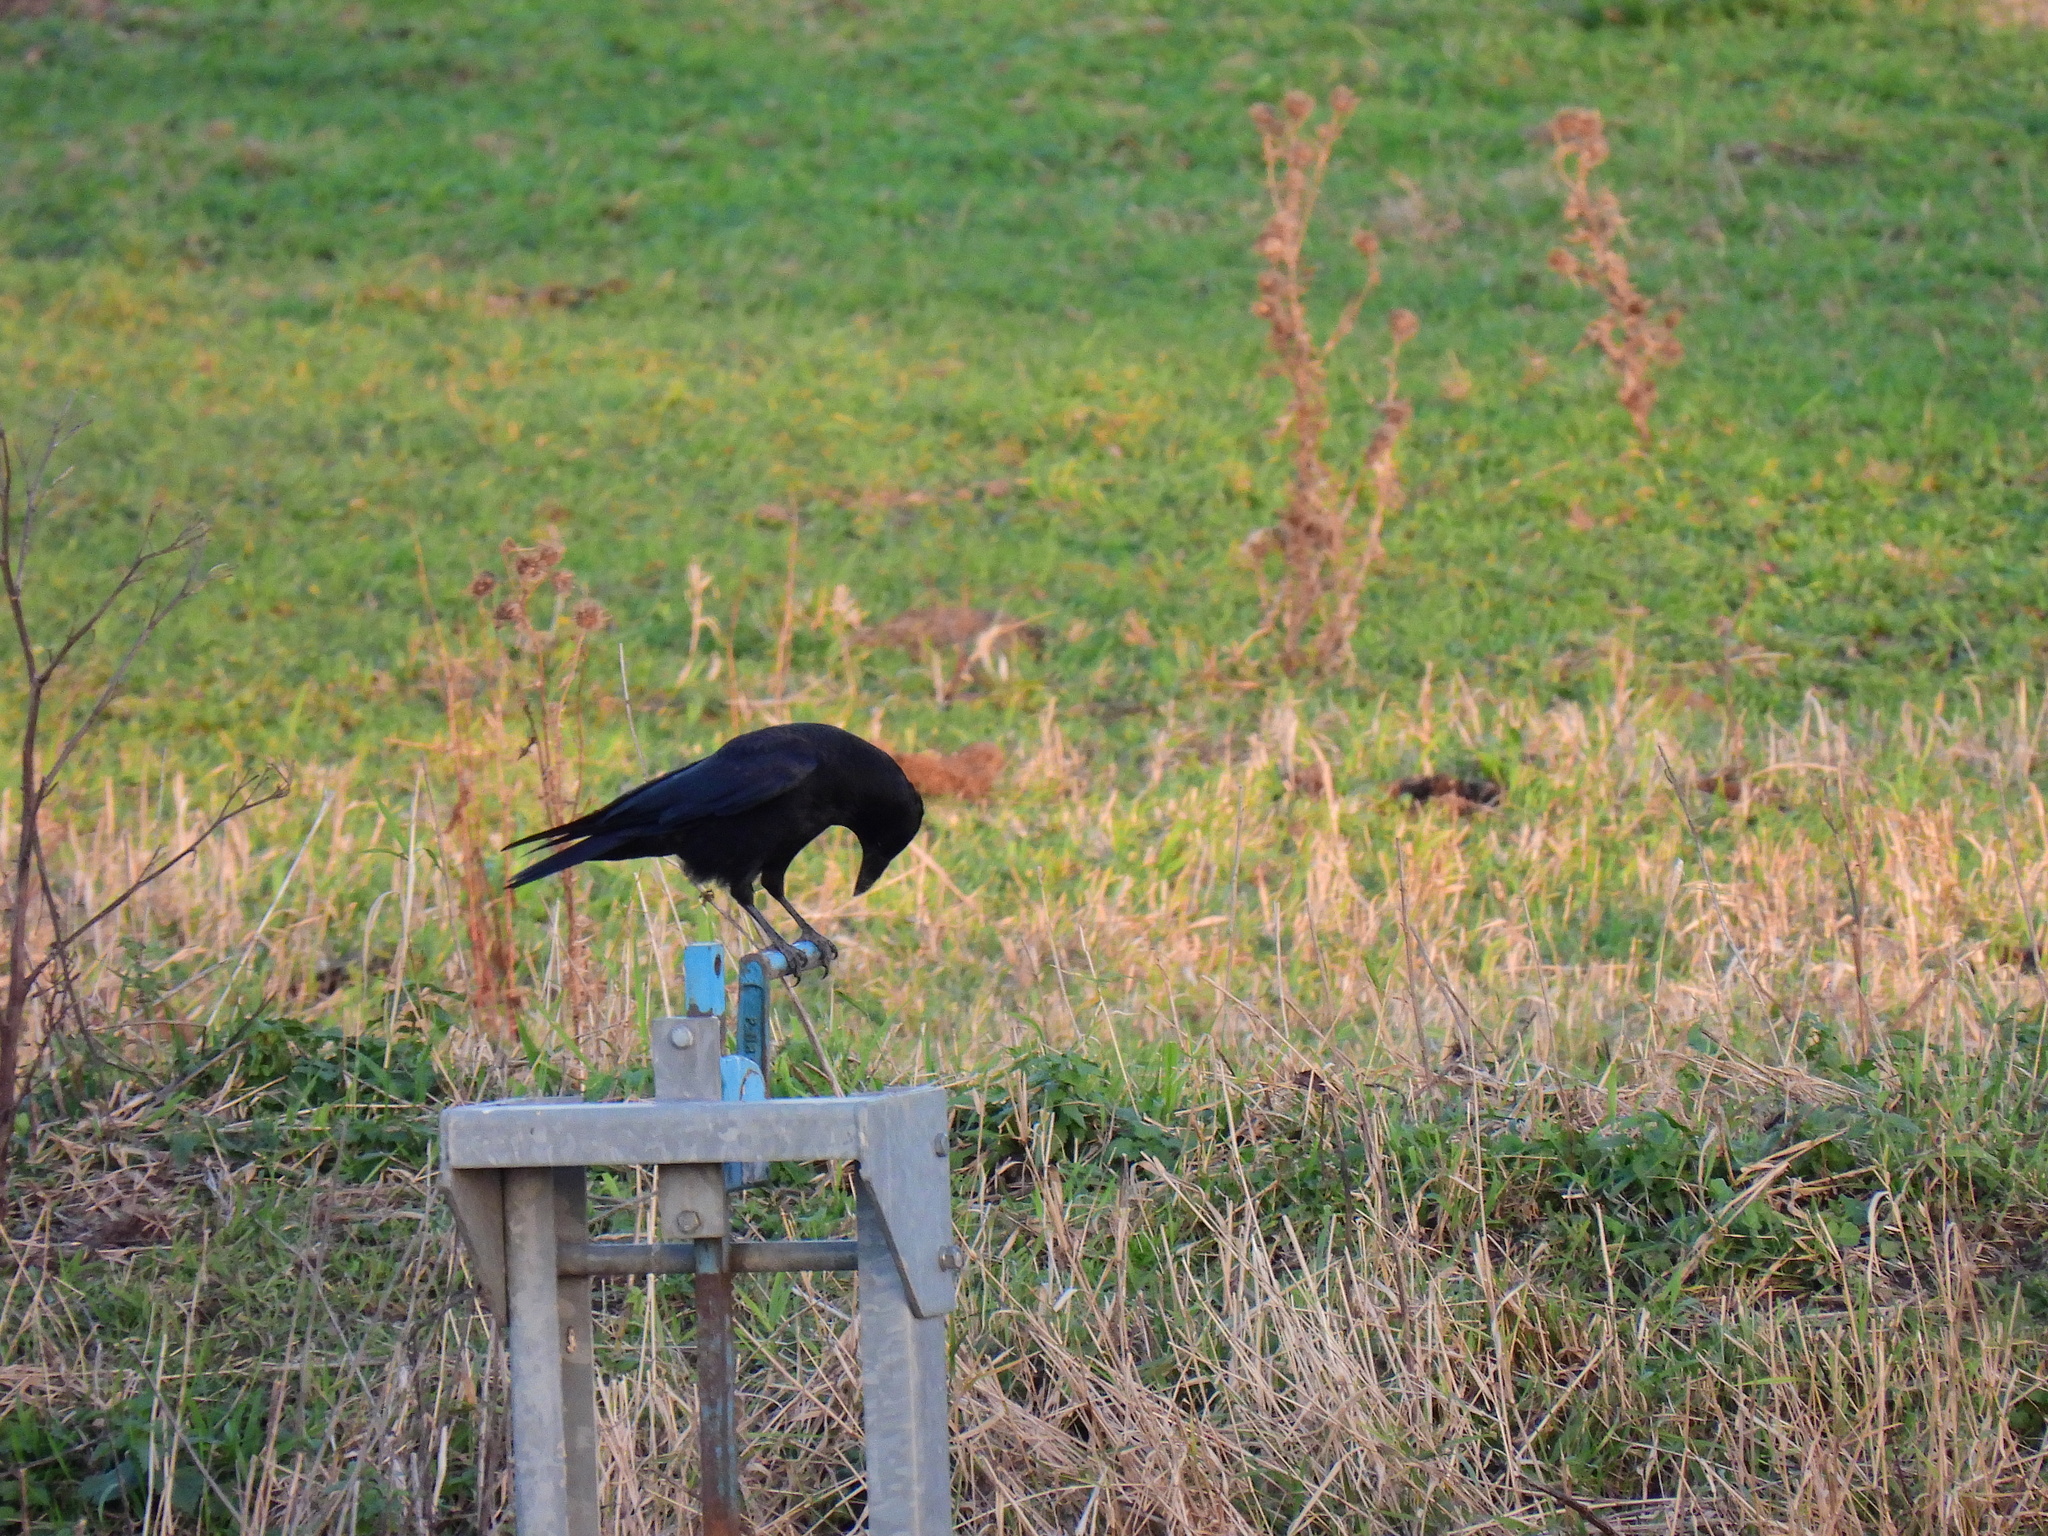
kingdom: Animalia
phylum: Chordata
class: Aves
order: Passeriformes
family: Corvidae
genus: Corvus
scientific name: Corvus corone
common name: Carrion crow
